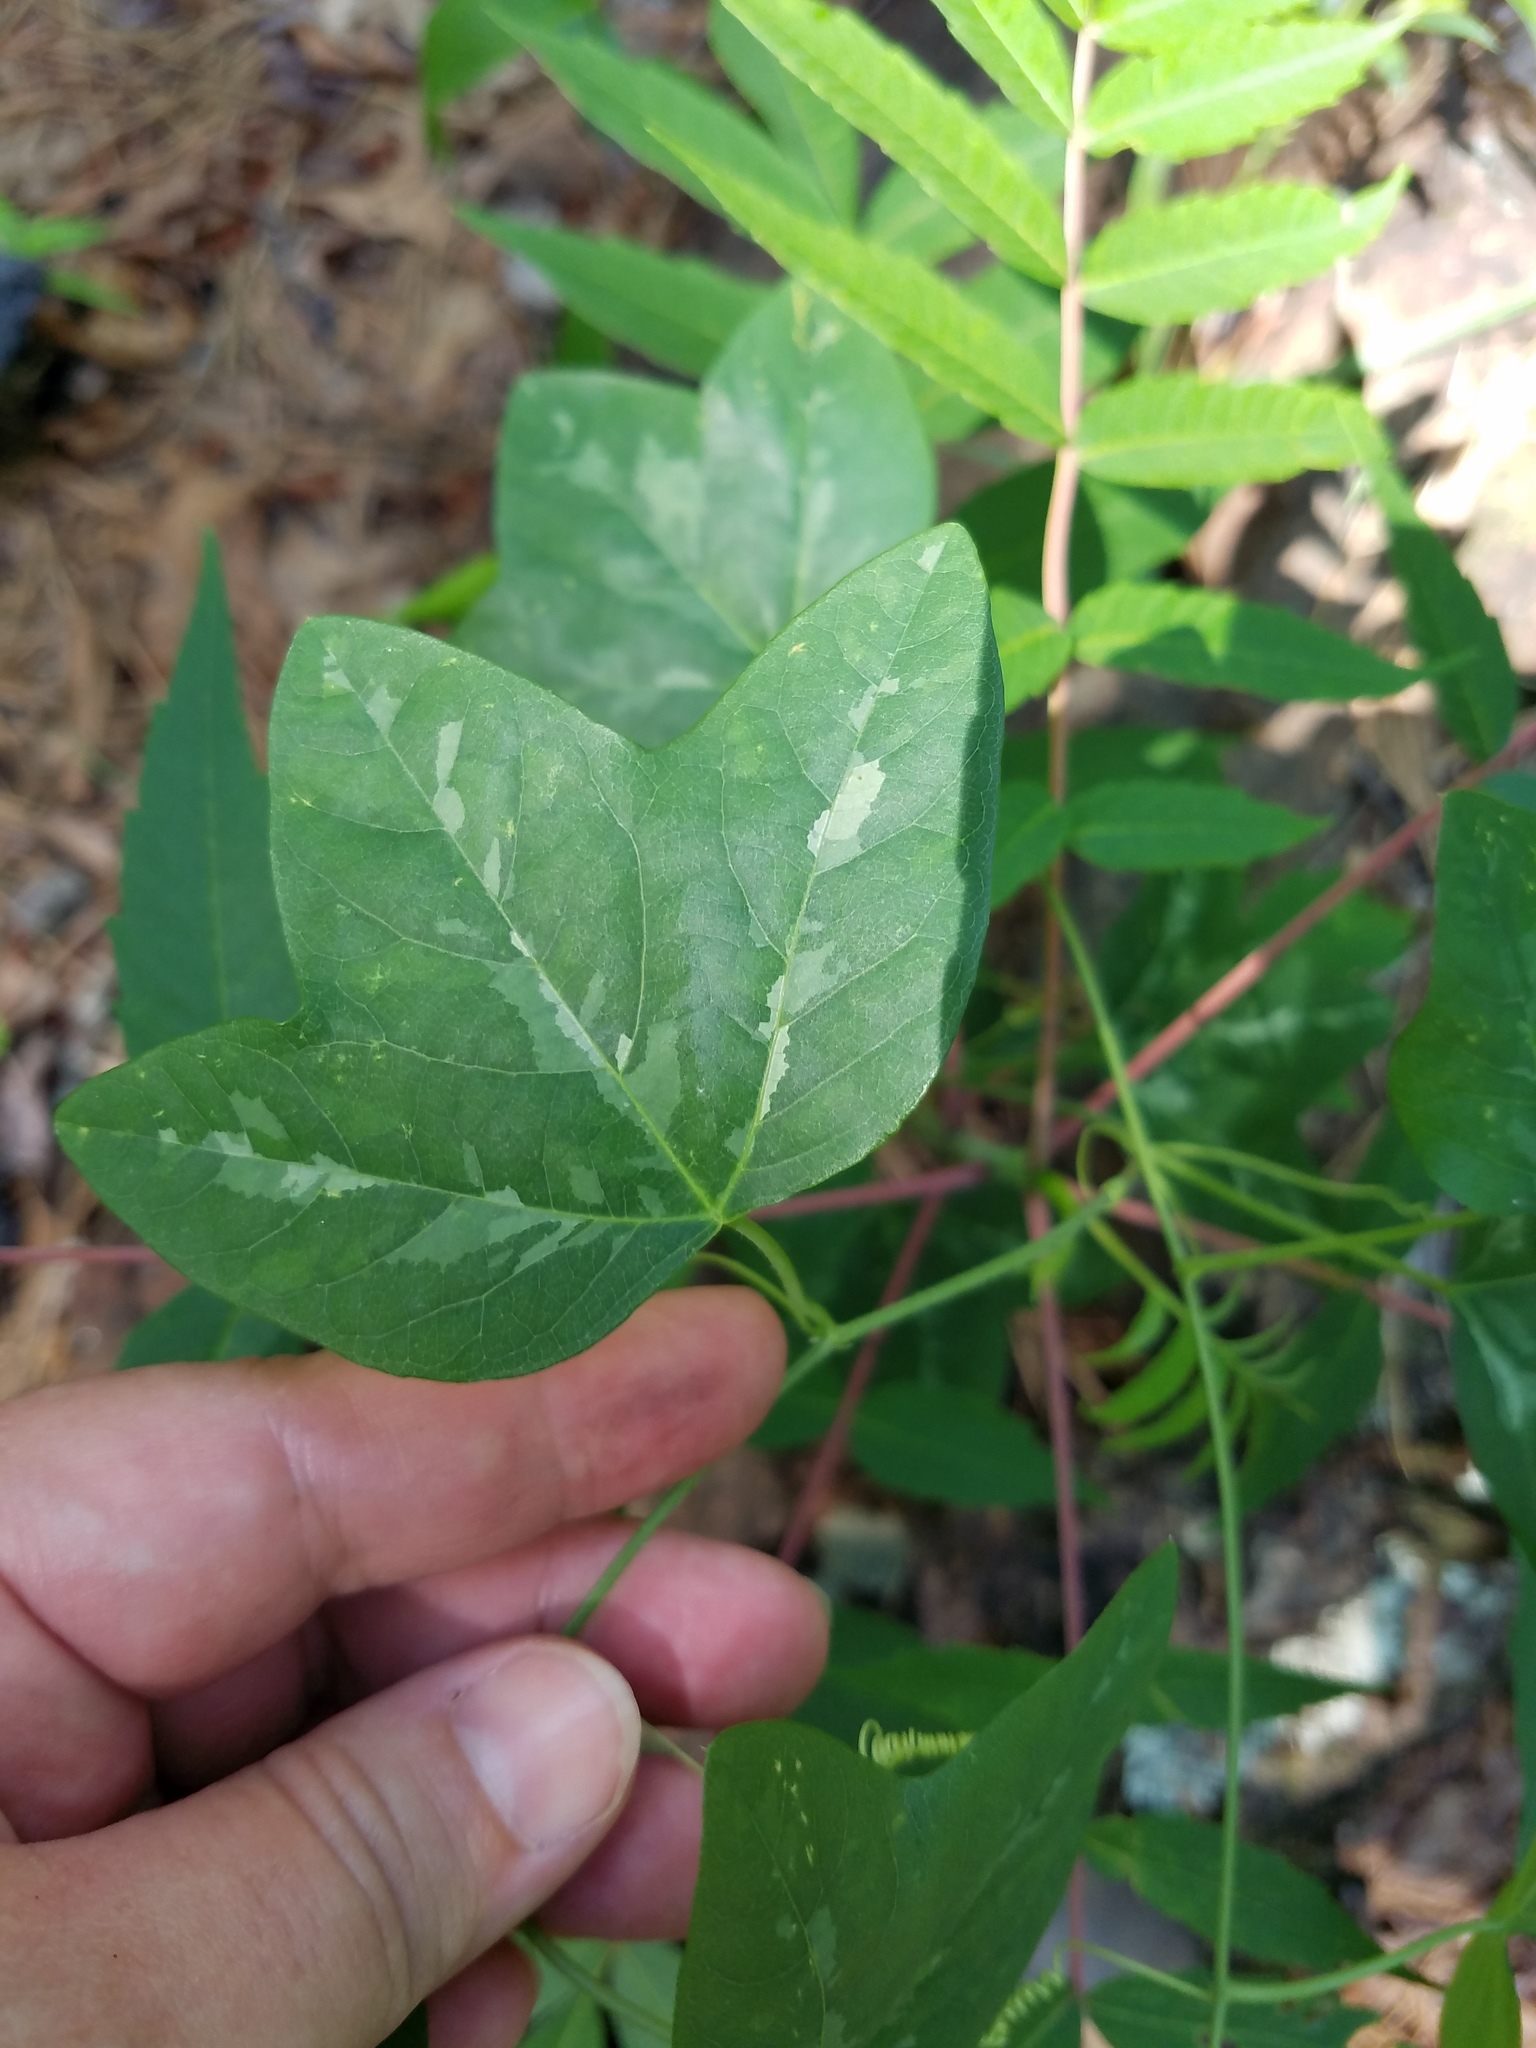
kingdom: Plantae
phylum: Tracheophyta
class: Magnoliopsida
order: Malpighiales
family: Passifloraceae
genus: Passiflora
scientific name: Passiflora lutea
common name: Yellow passionflower
